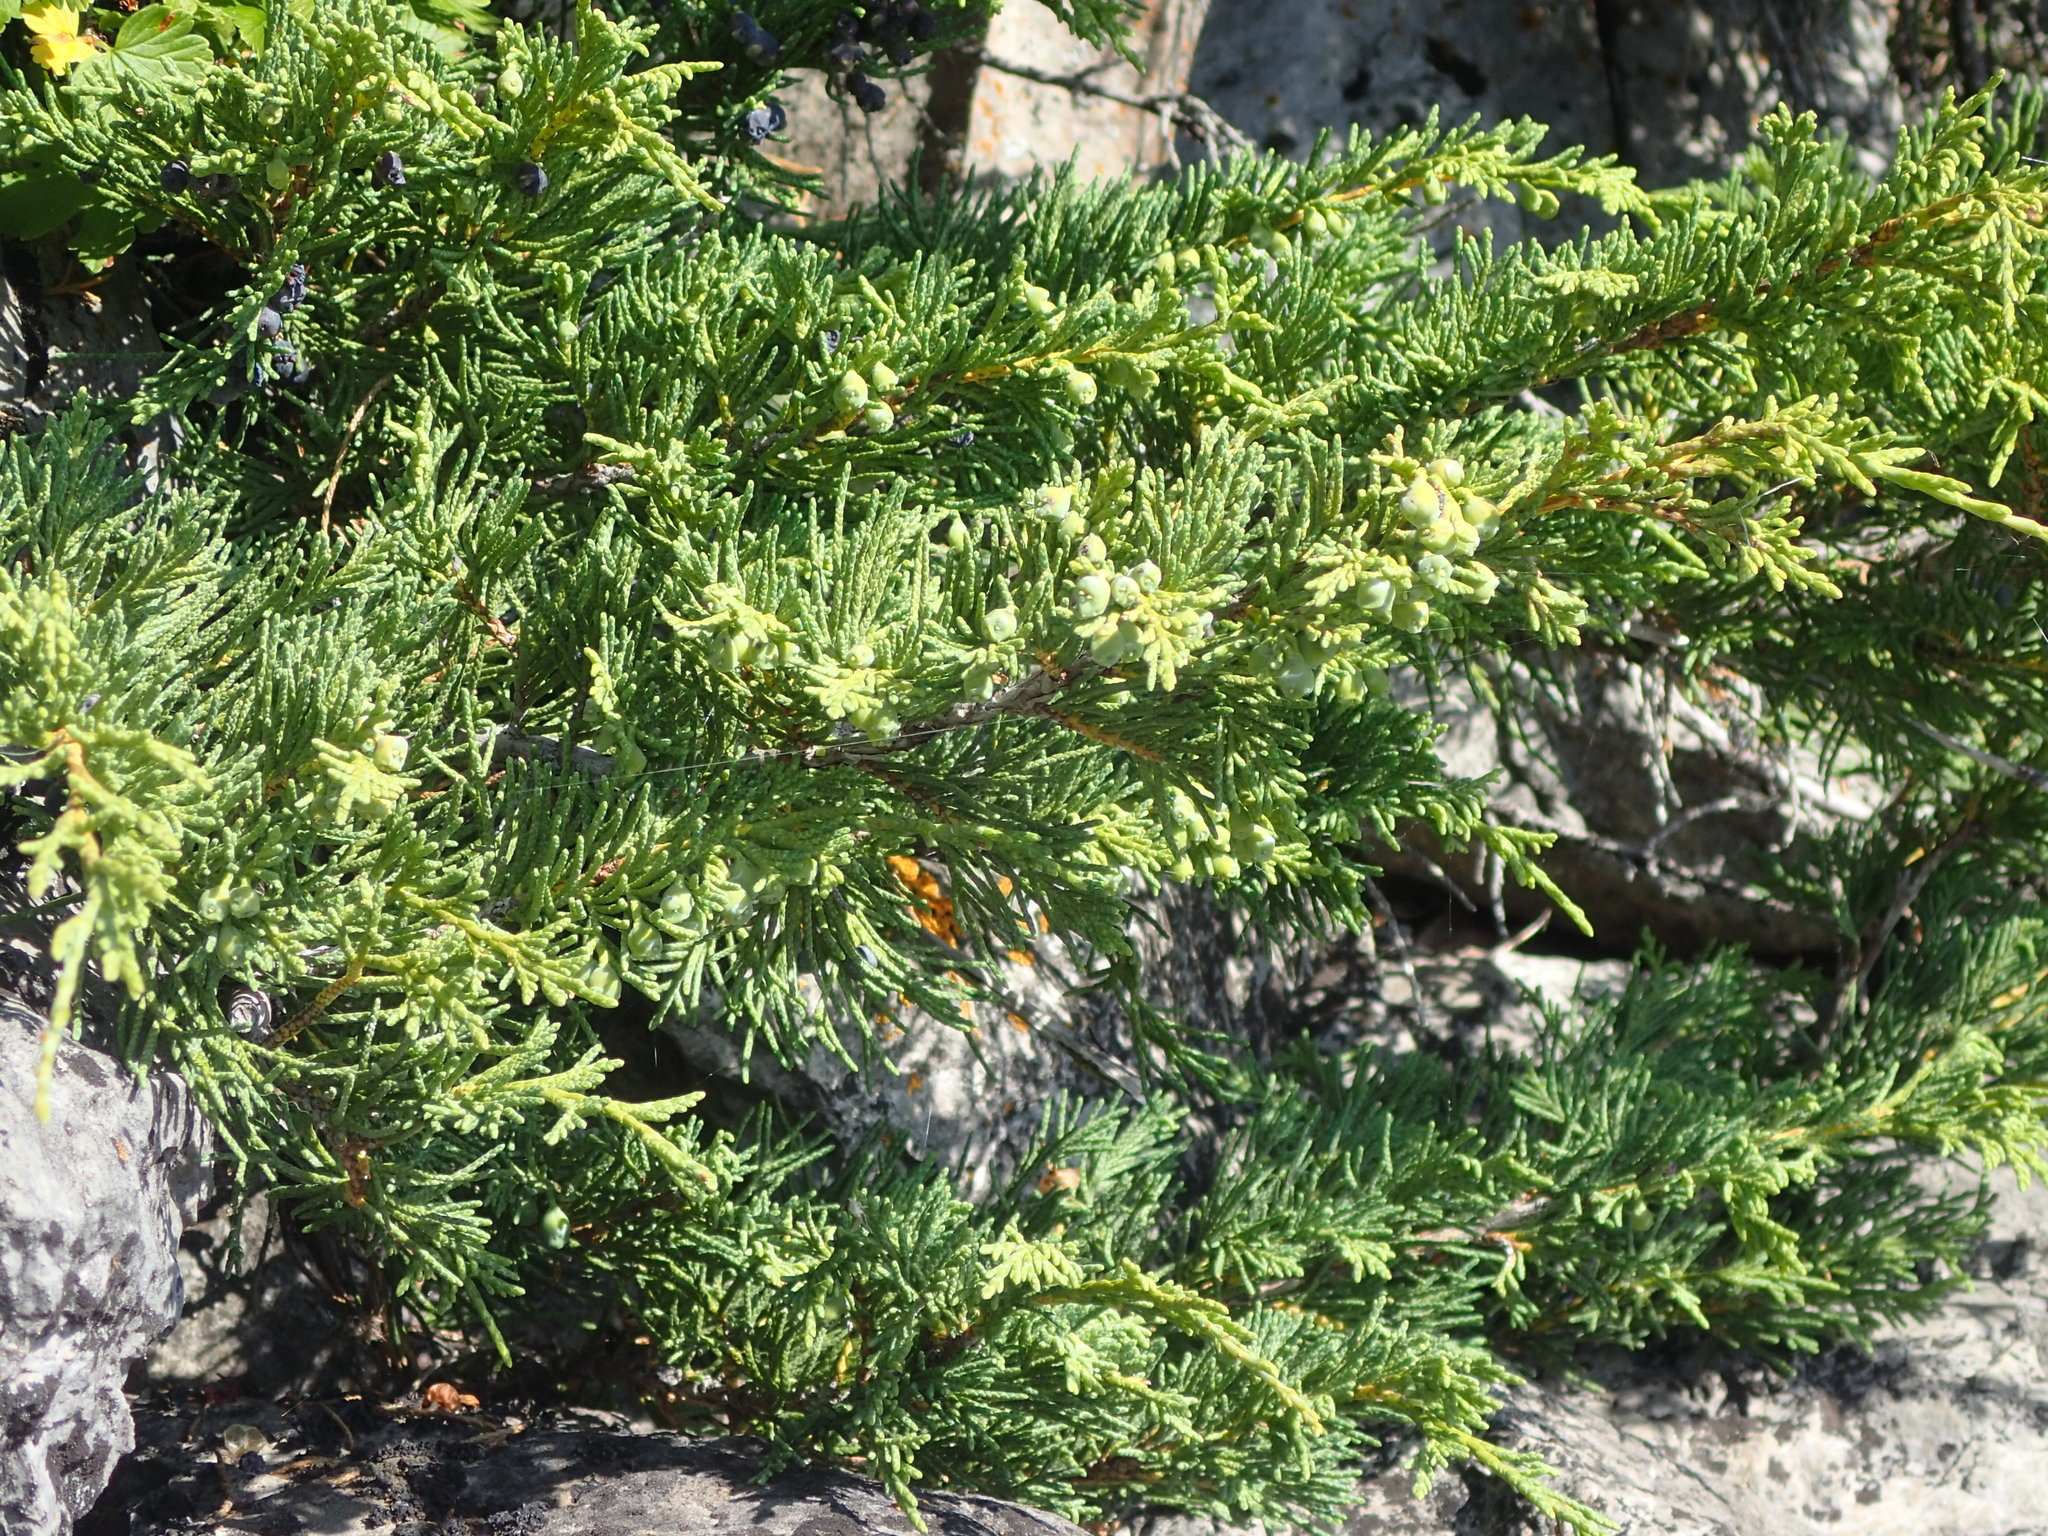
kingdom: Plantae
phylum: Tracheophyta
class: Pinopsida
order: Pinales
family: Cupressaceae
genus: Juniperus
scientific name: Juniperus horizontalis
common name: Creeping juniper
